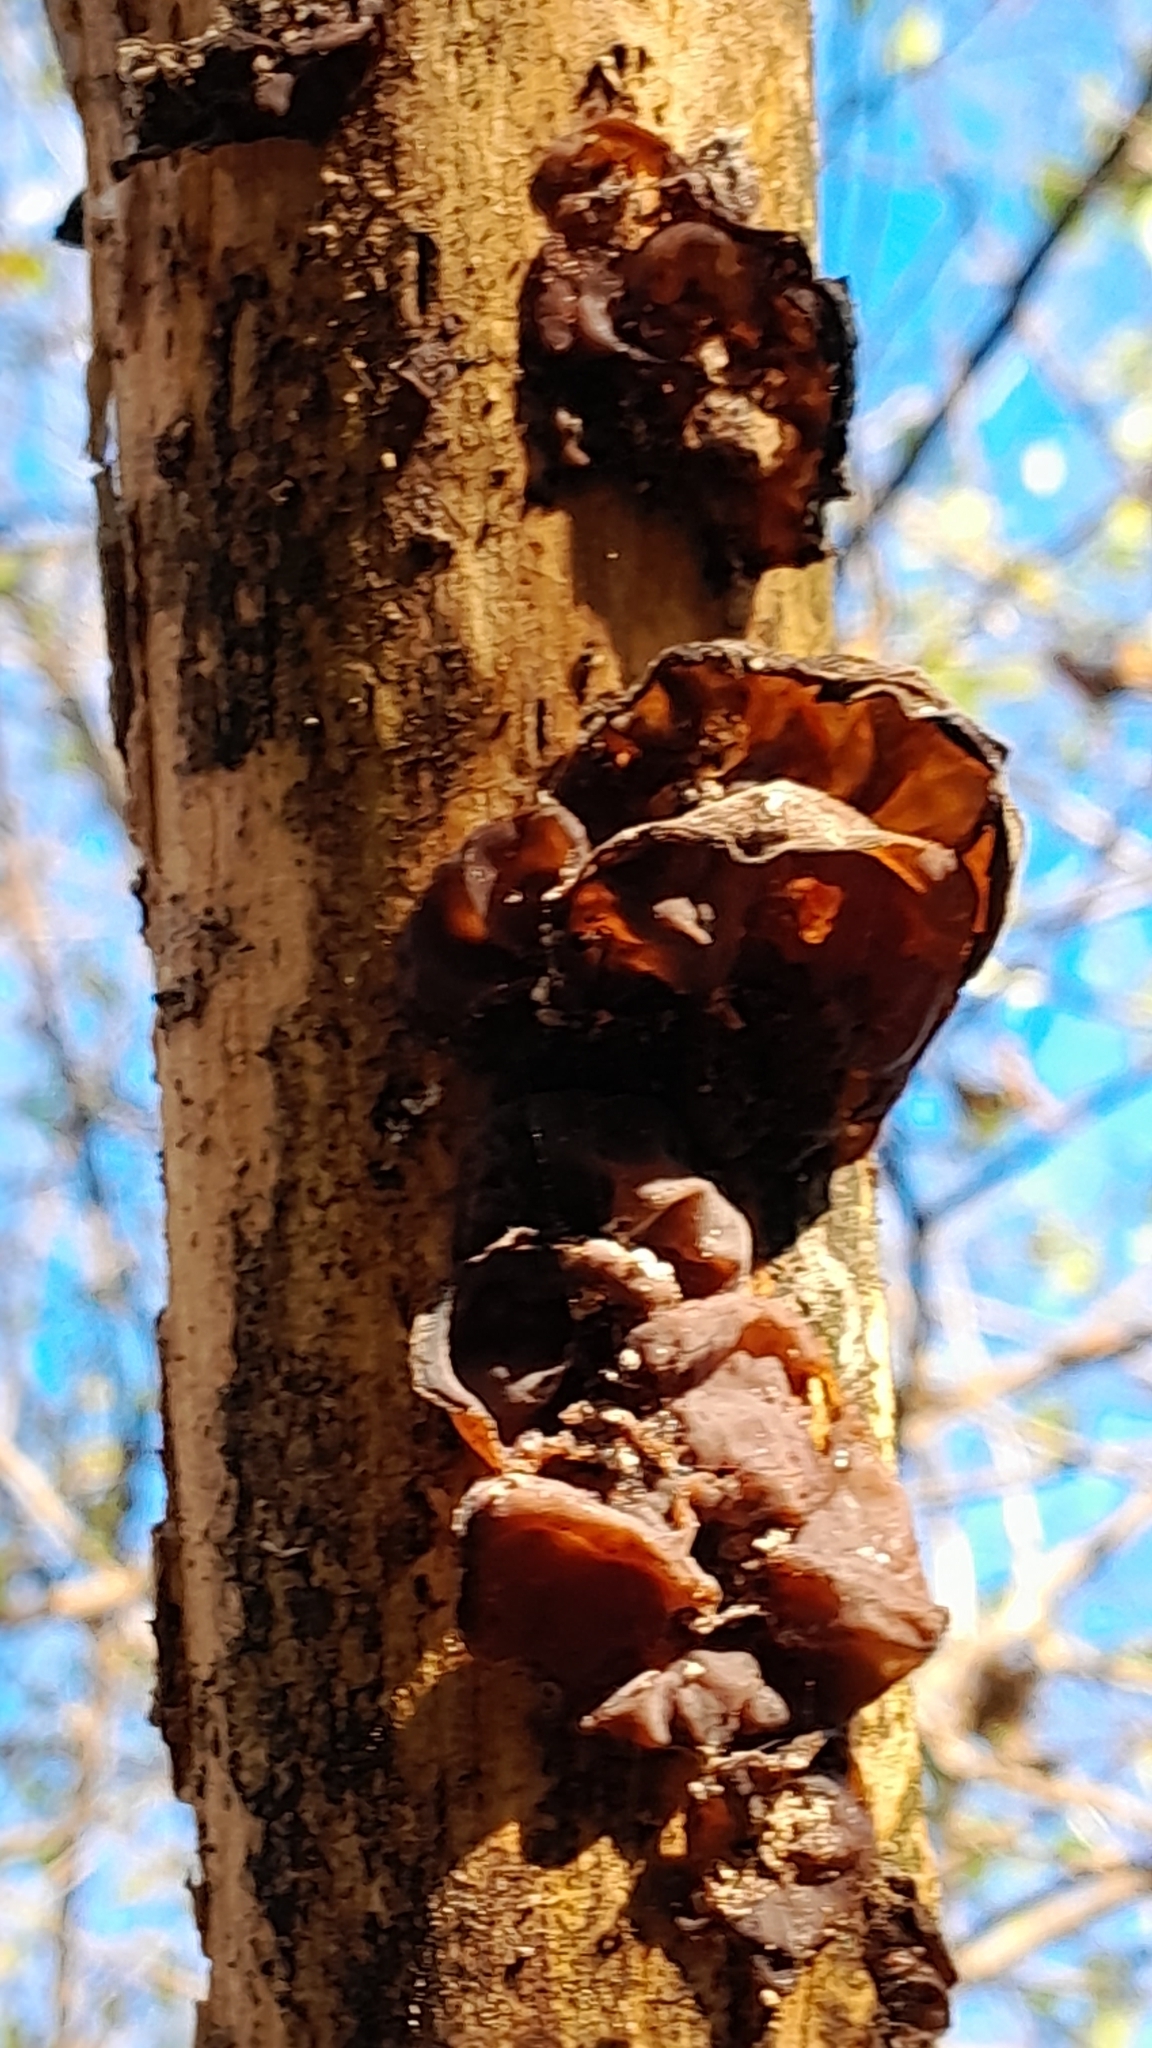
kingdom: Fungi
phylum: Basidiomycota
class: Agaricomycetes
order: Auriculariales
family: Auriculariaceae
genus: Auricularia
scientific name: Auricularia auricula-judae
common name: Jelly ear
